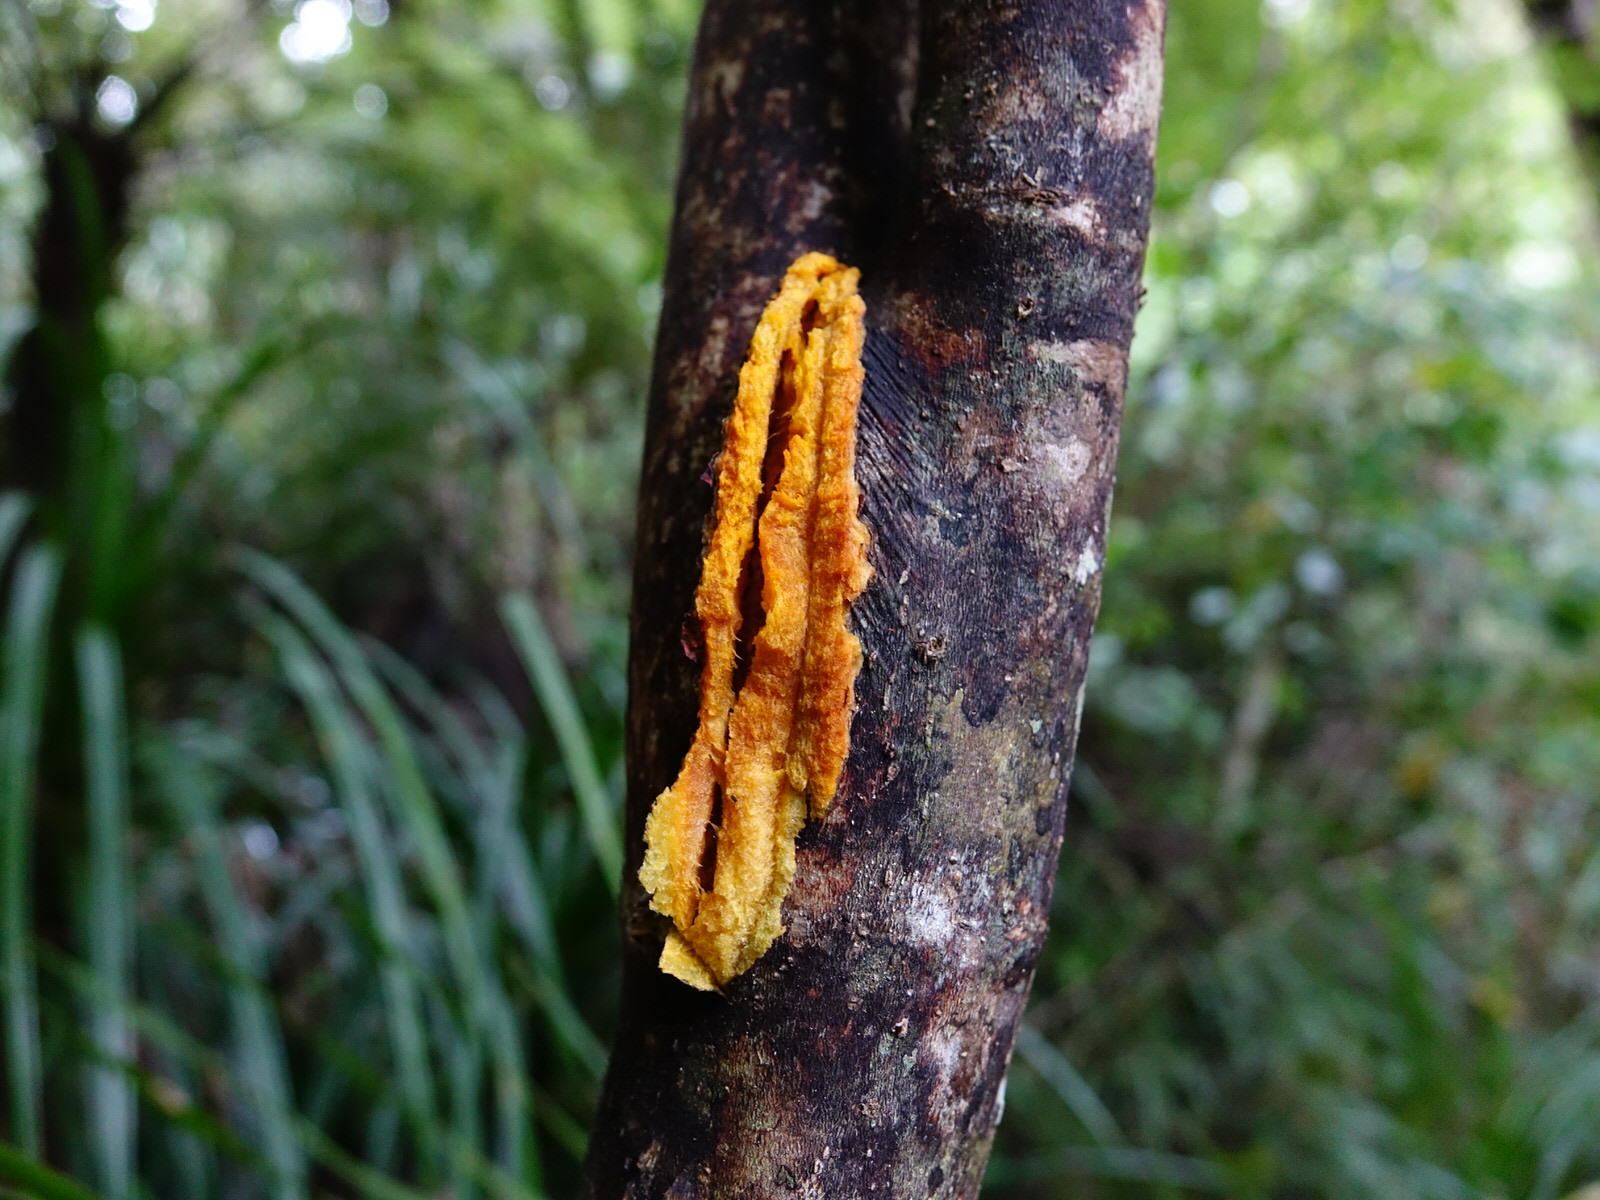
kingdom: Plantae
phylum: Tracheophyta
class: Magnoliopsida
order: Gentianales
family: Rubiaceae
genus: Coprosma
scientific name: Coprosma autumnalis
